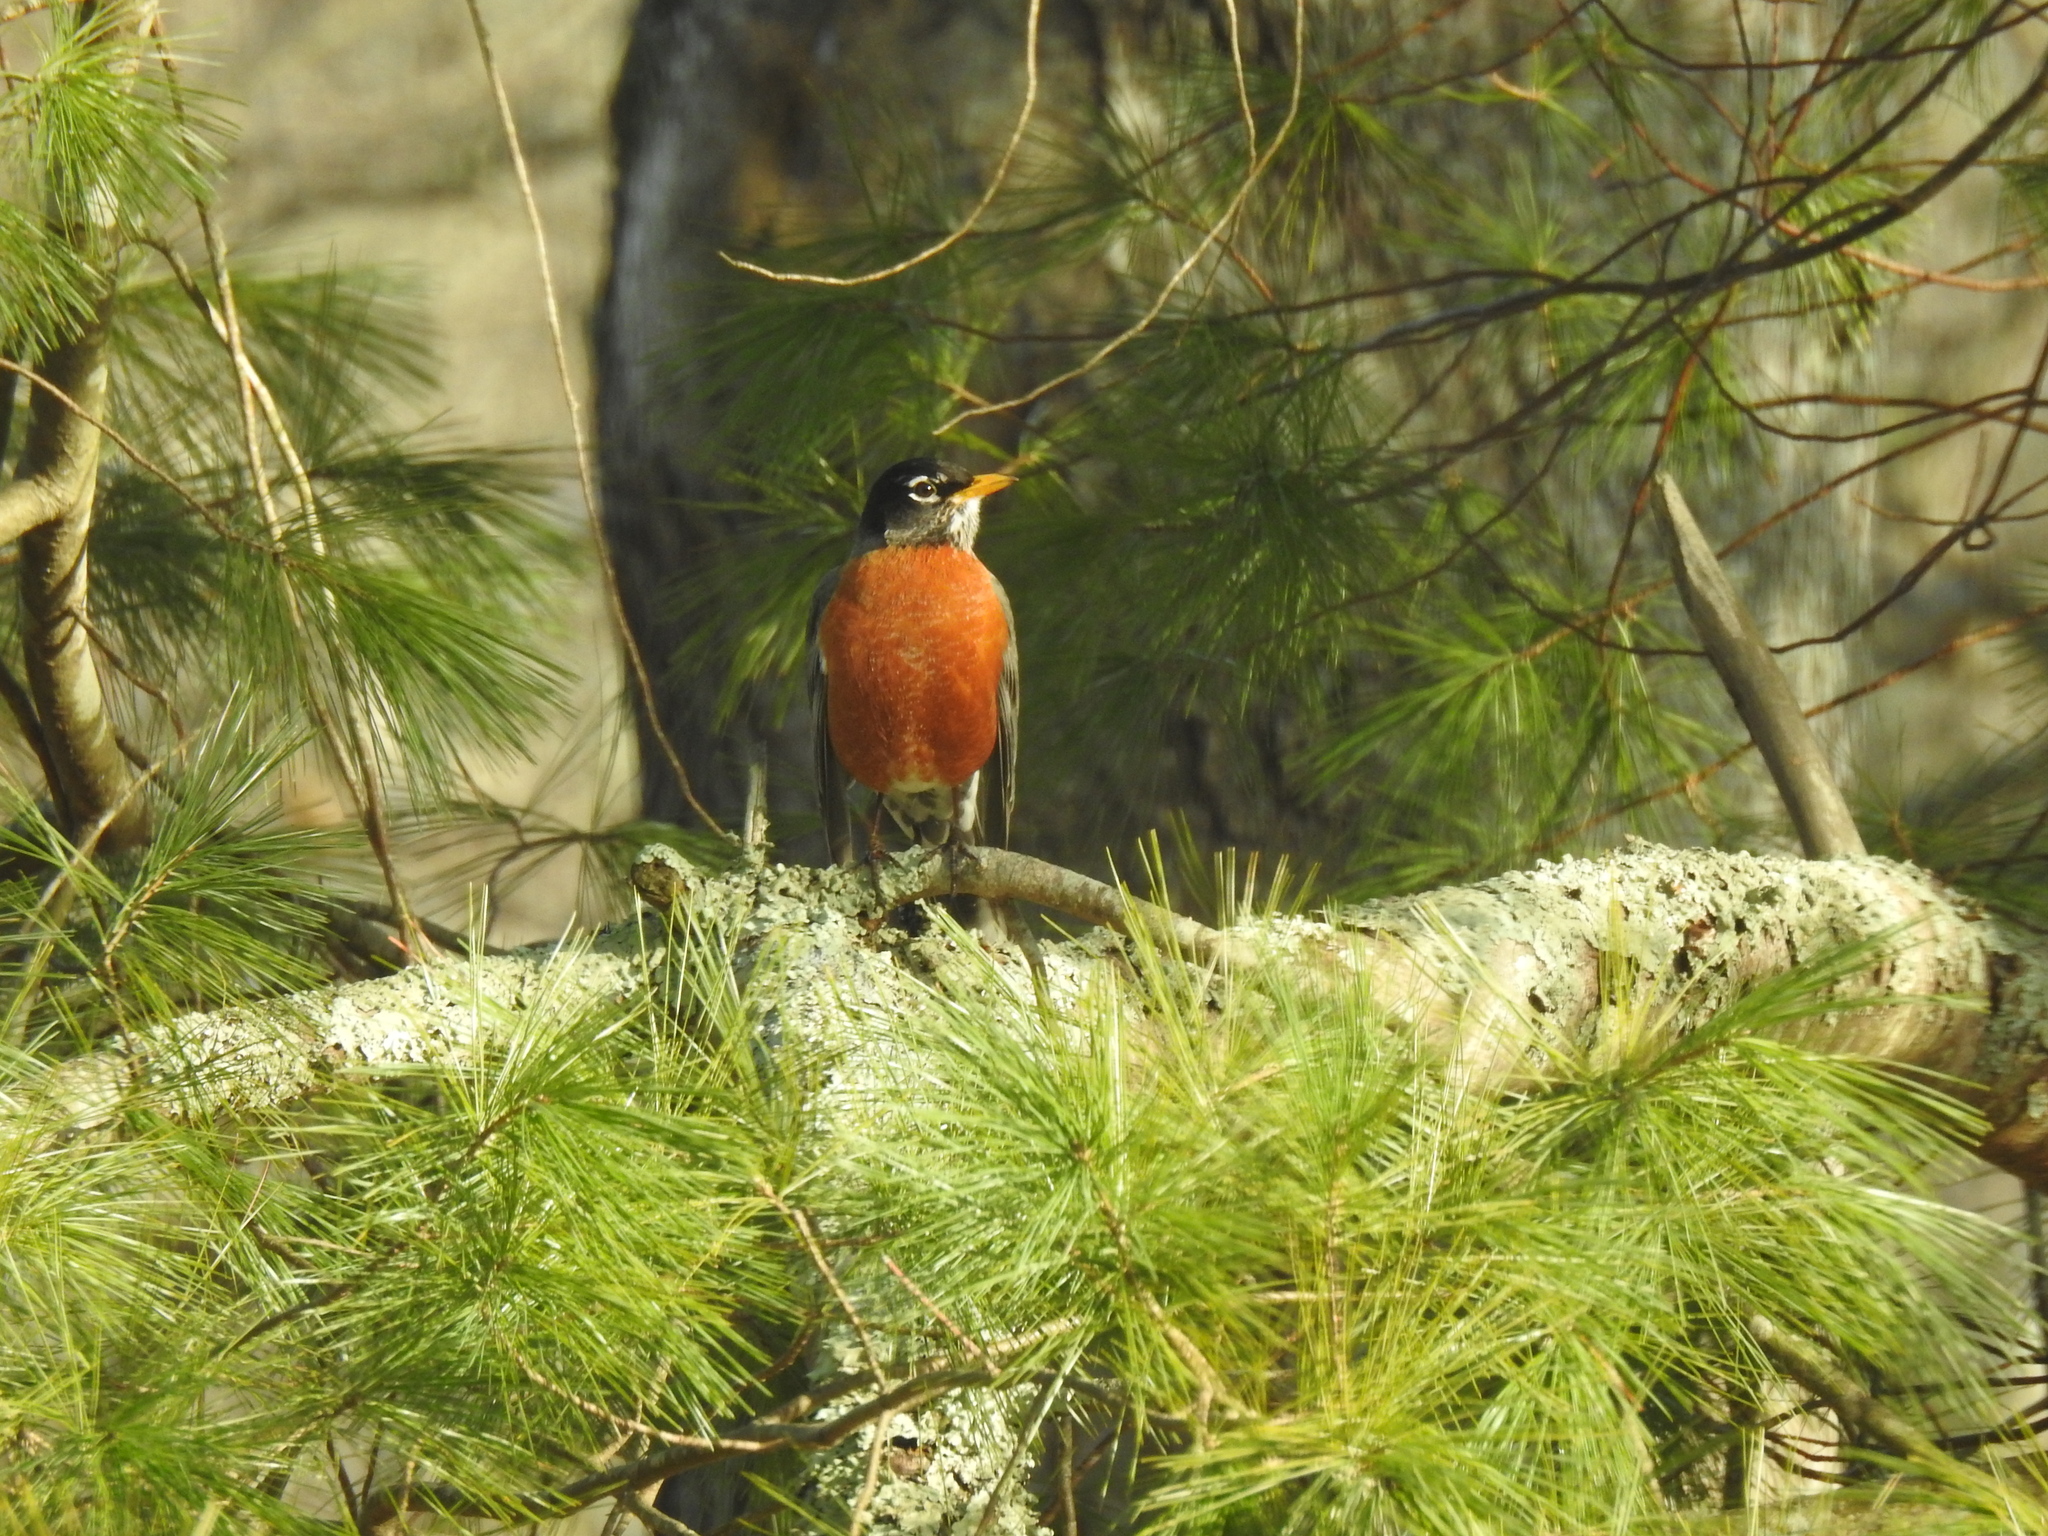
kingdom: Animalia
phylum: Chordata
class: Aves
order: Passeriformes
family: Turdidae
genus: Turdus
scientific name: Turdus migratorius
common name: American robin
